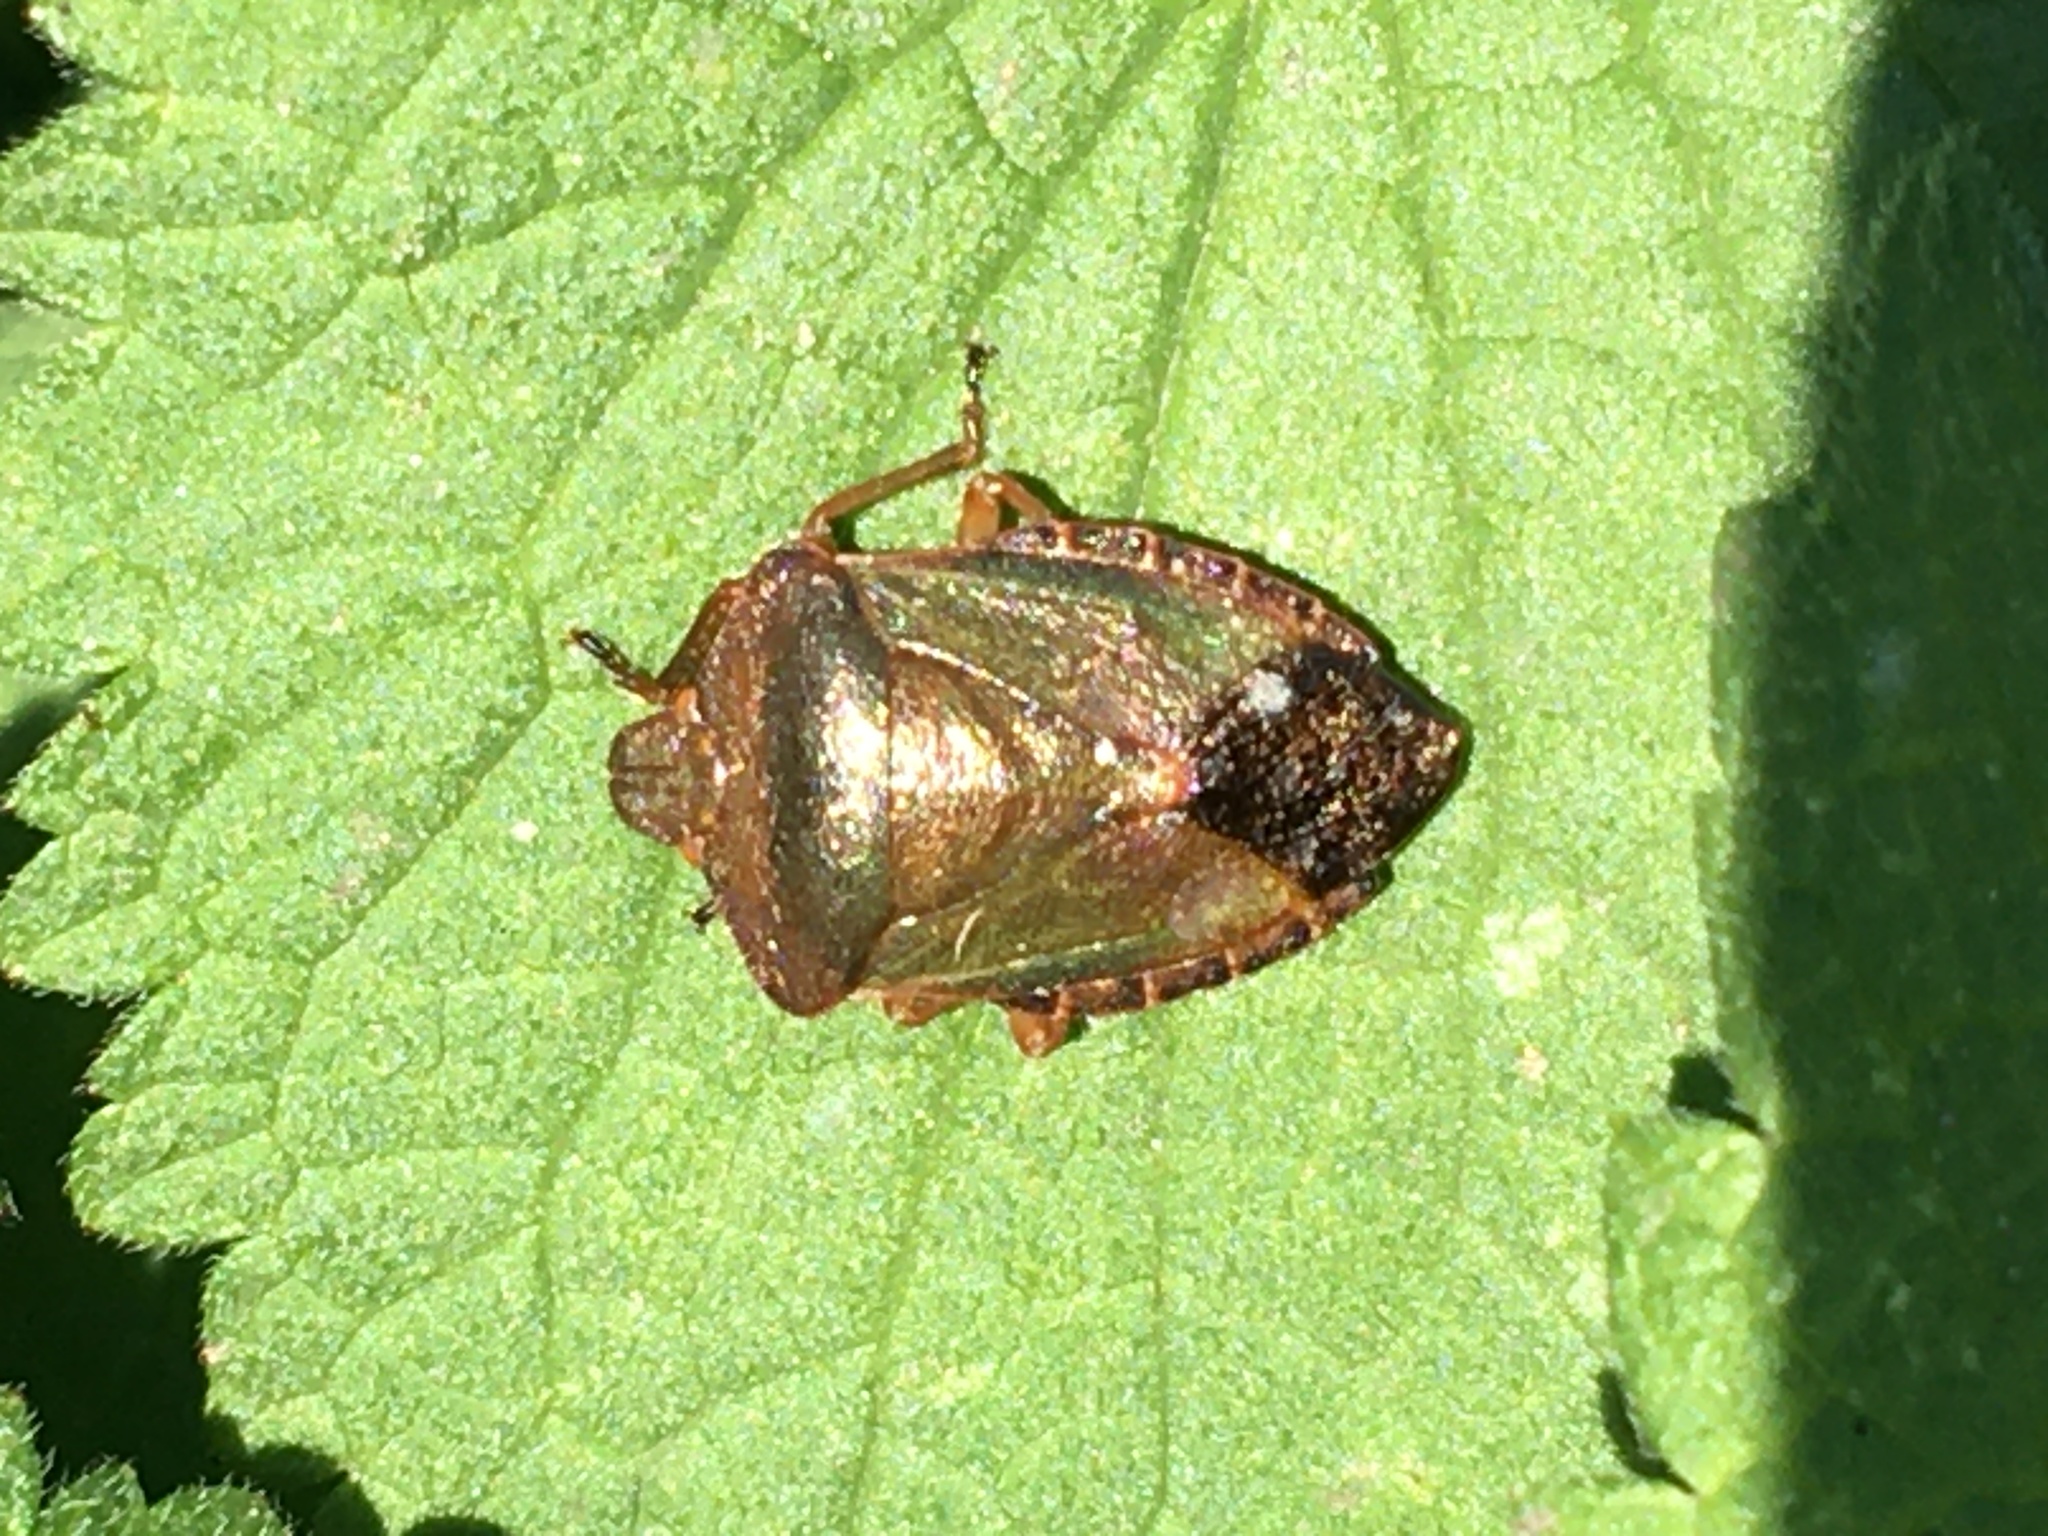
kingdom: Animalia
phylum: Arthropoda
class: Insecta
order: Hemiptera
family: Pentatomidae
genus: Palomena
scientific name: Palomena prasina
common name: Green shieldbug
